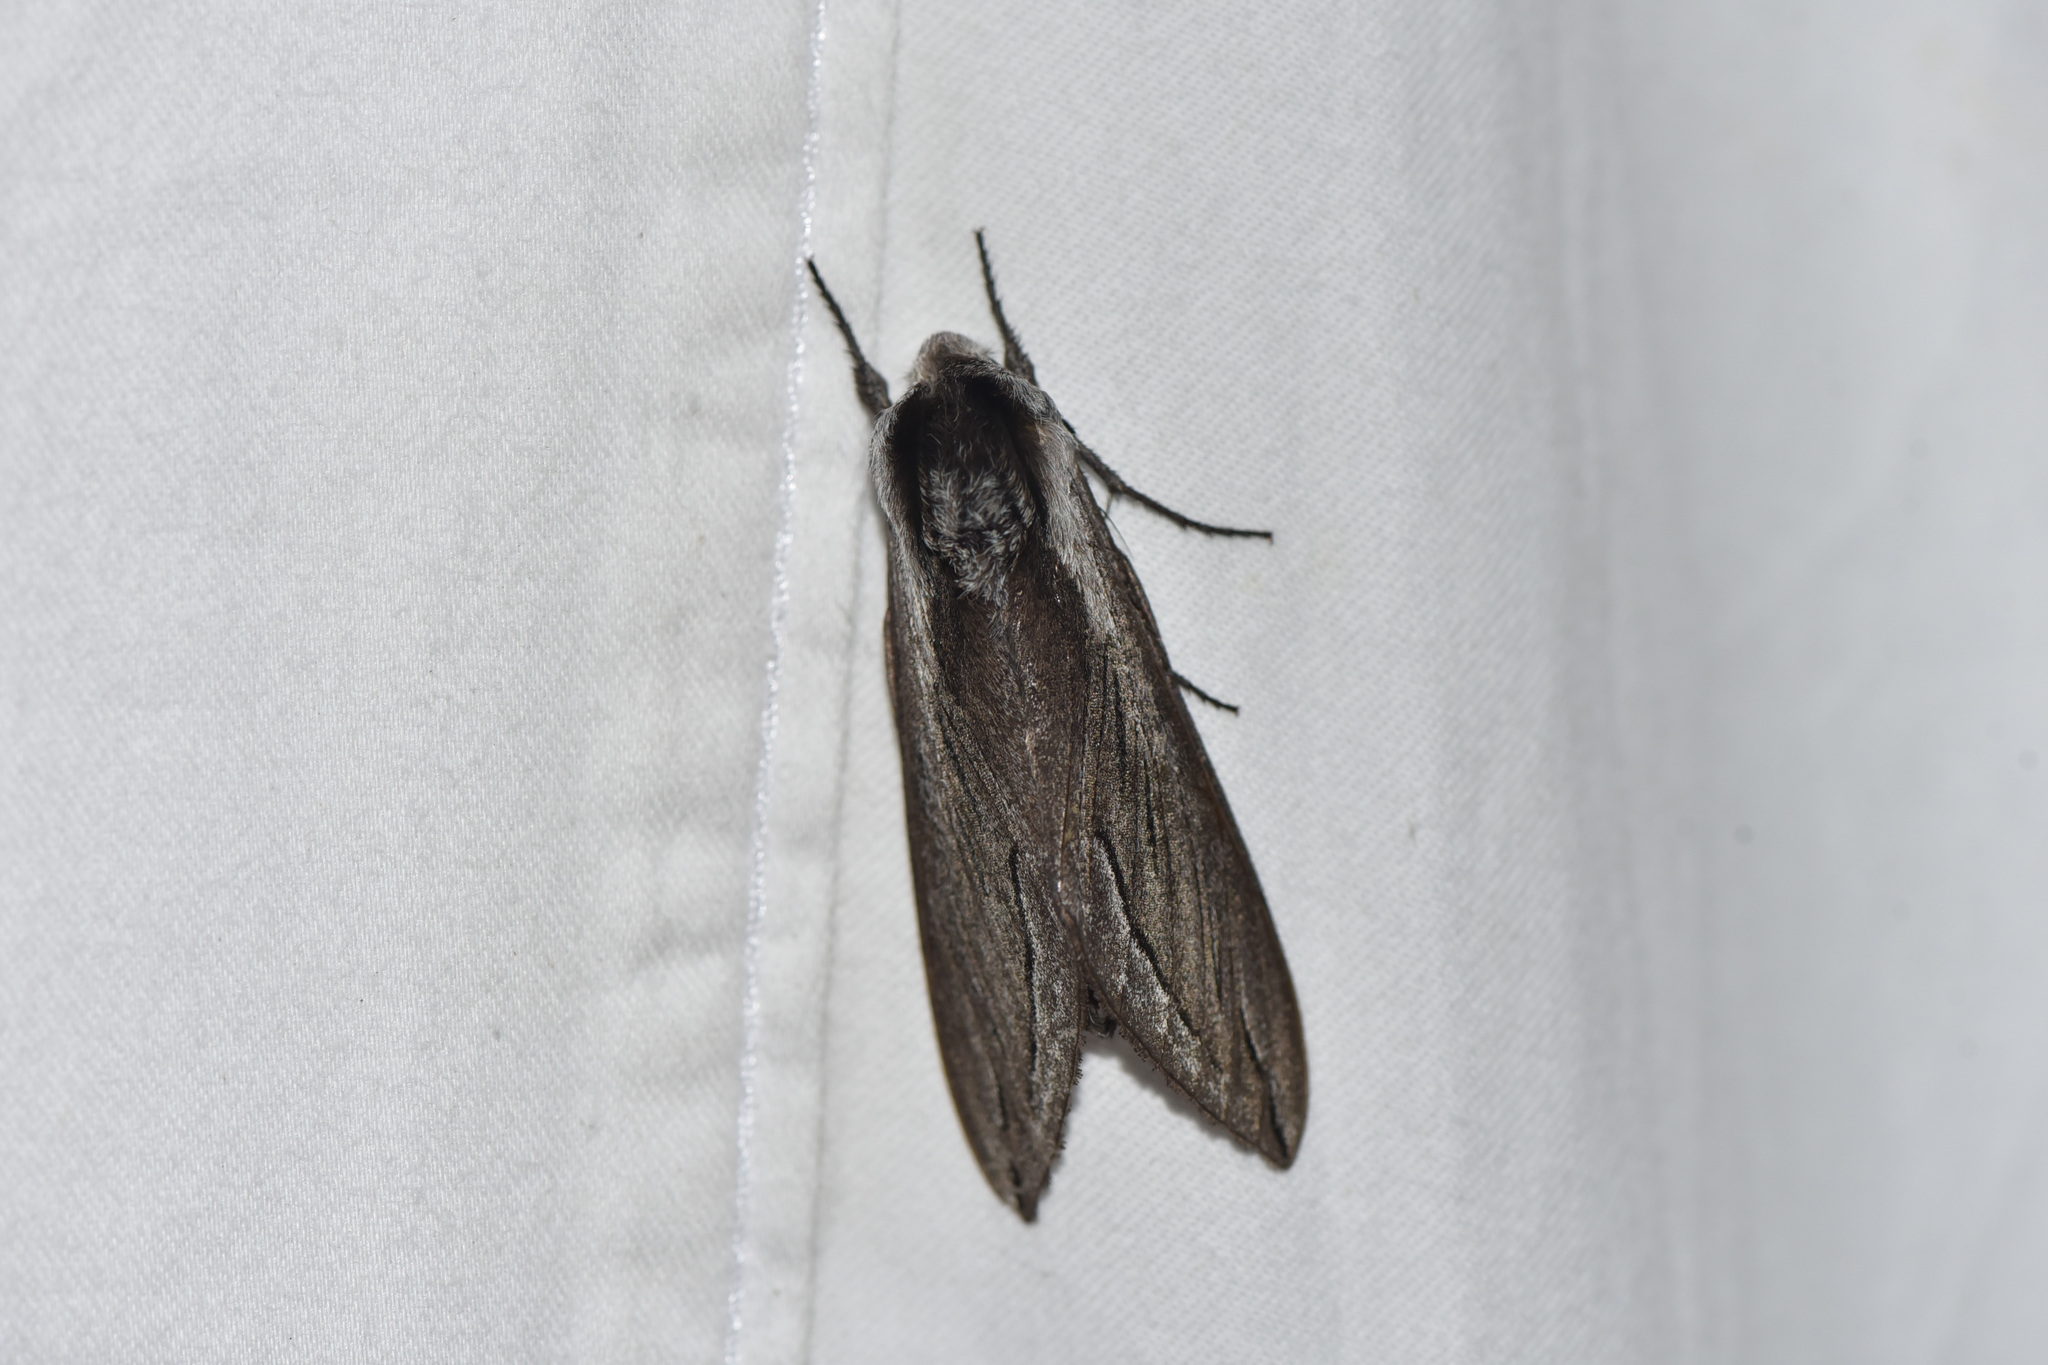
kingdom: Animalia
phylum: Arthropoda
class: Insecta
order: Lepidoptera
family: Sphingidae
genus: Sphinx
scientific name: Sphinx vashti
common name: Snowberry sphinx
